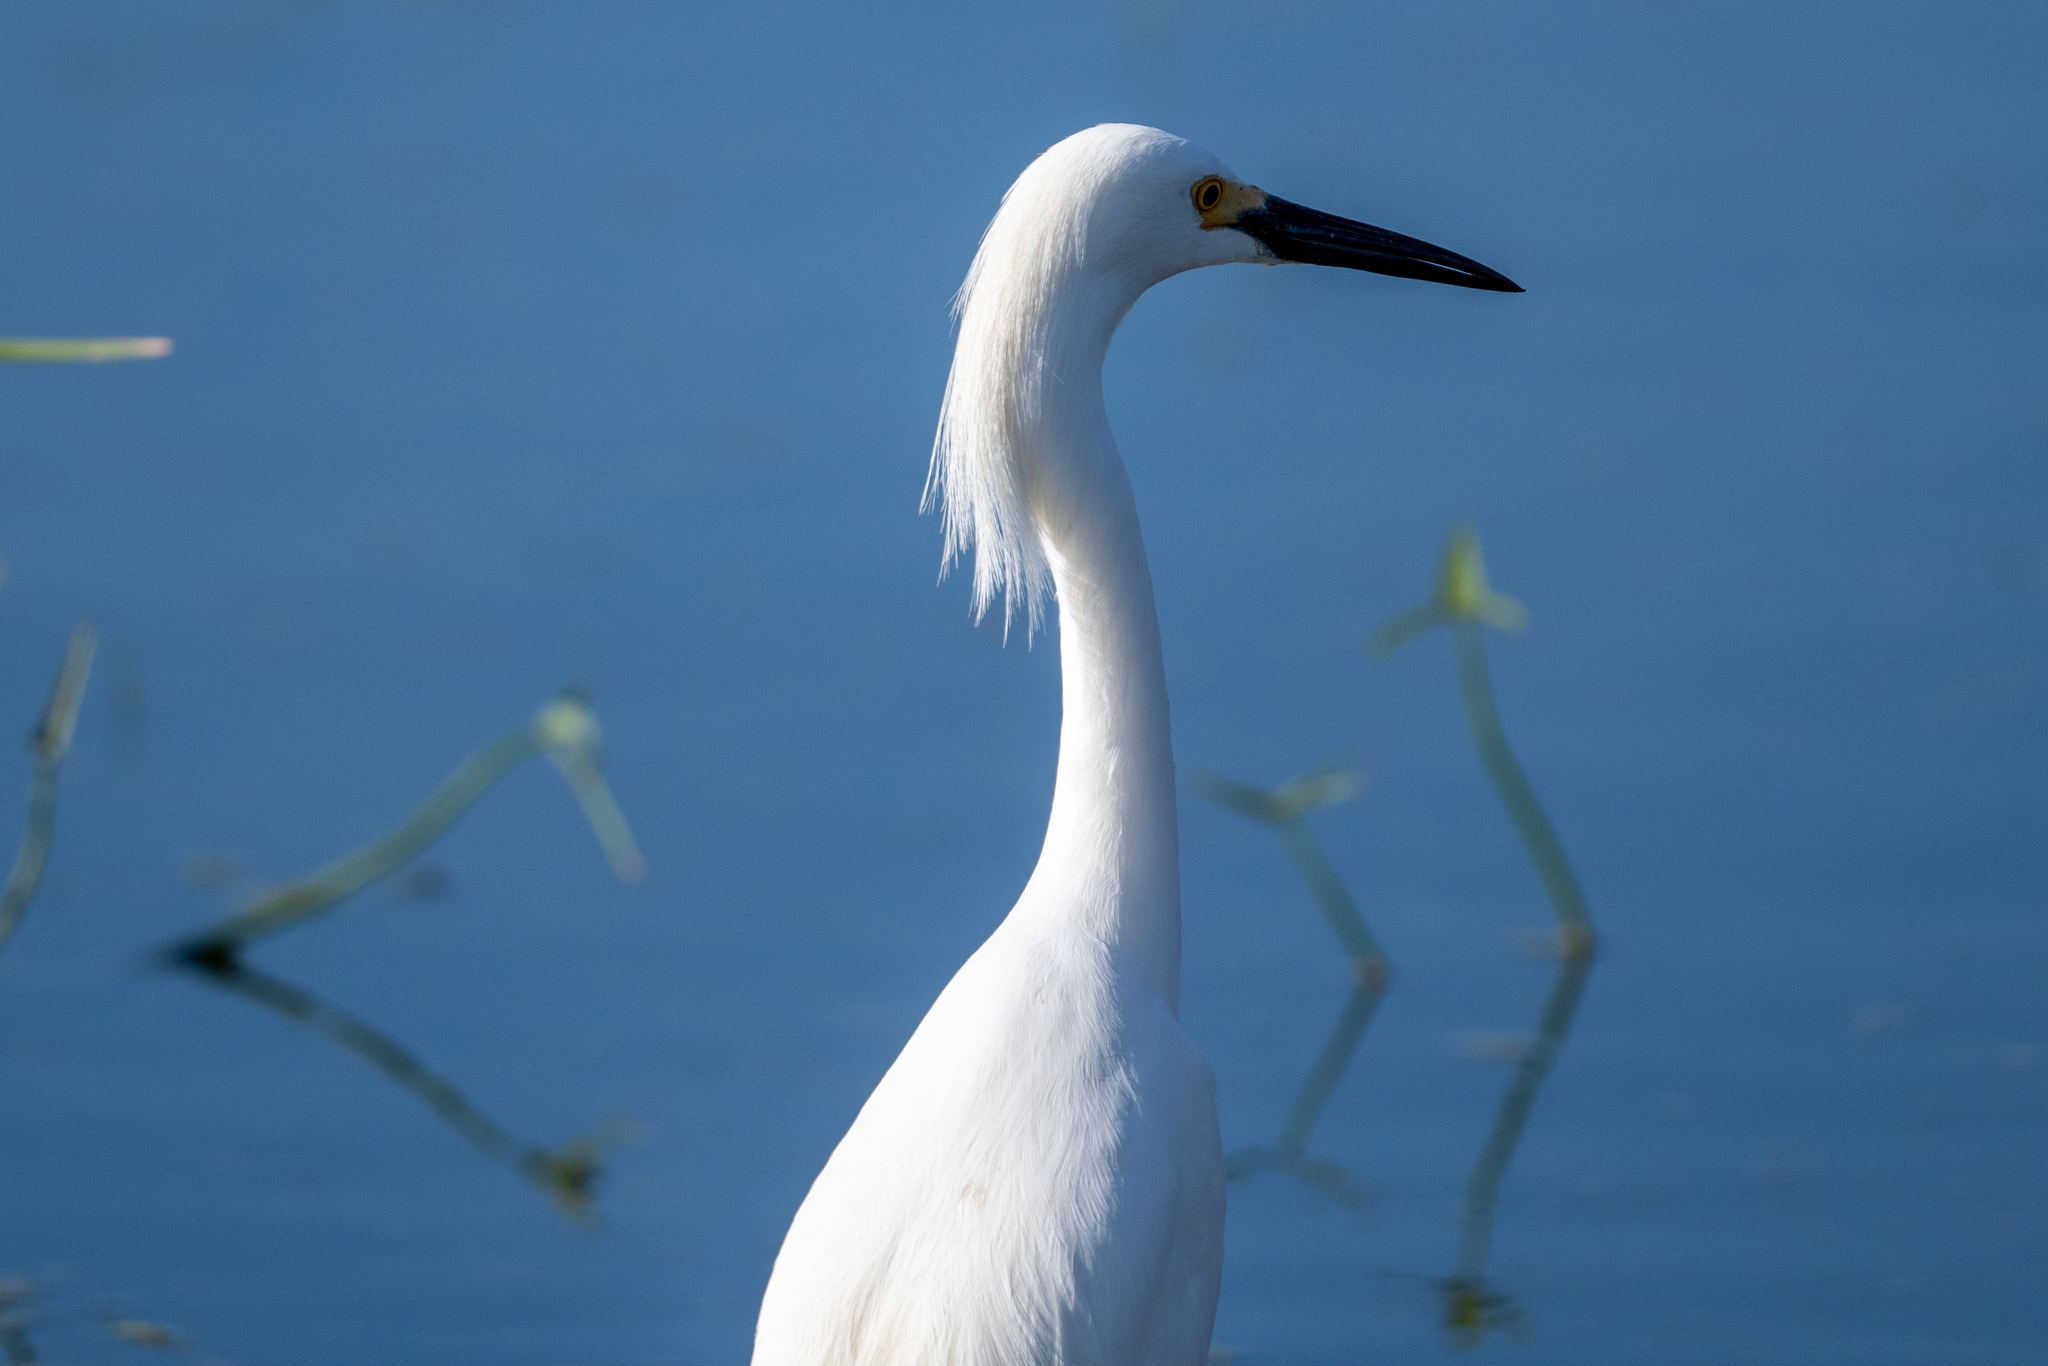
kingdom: Animalia
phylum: Chordata
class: Aves
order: Pelecaniformes
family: Ardeidae
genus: Egretta
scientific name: Egretta thula
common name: Snowy egret
